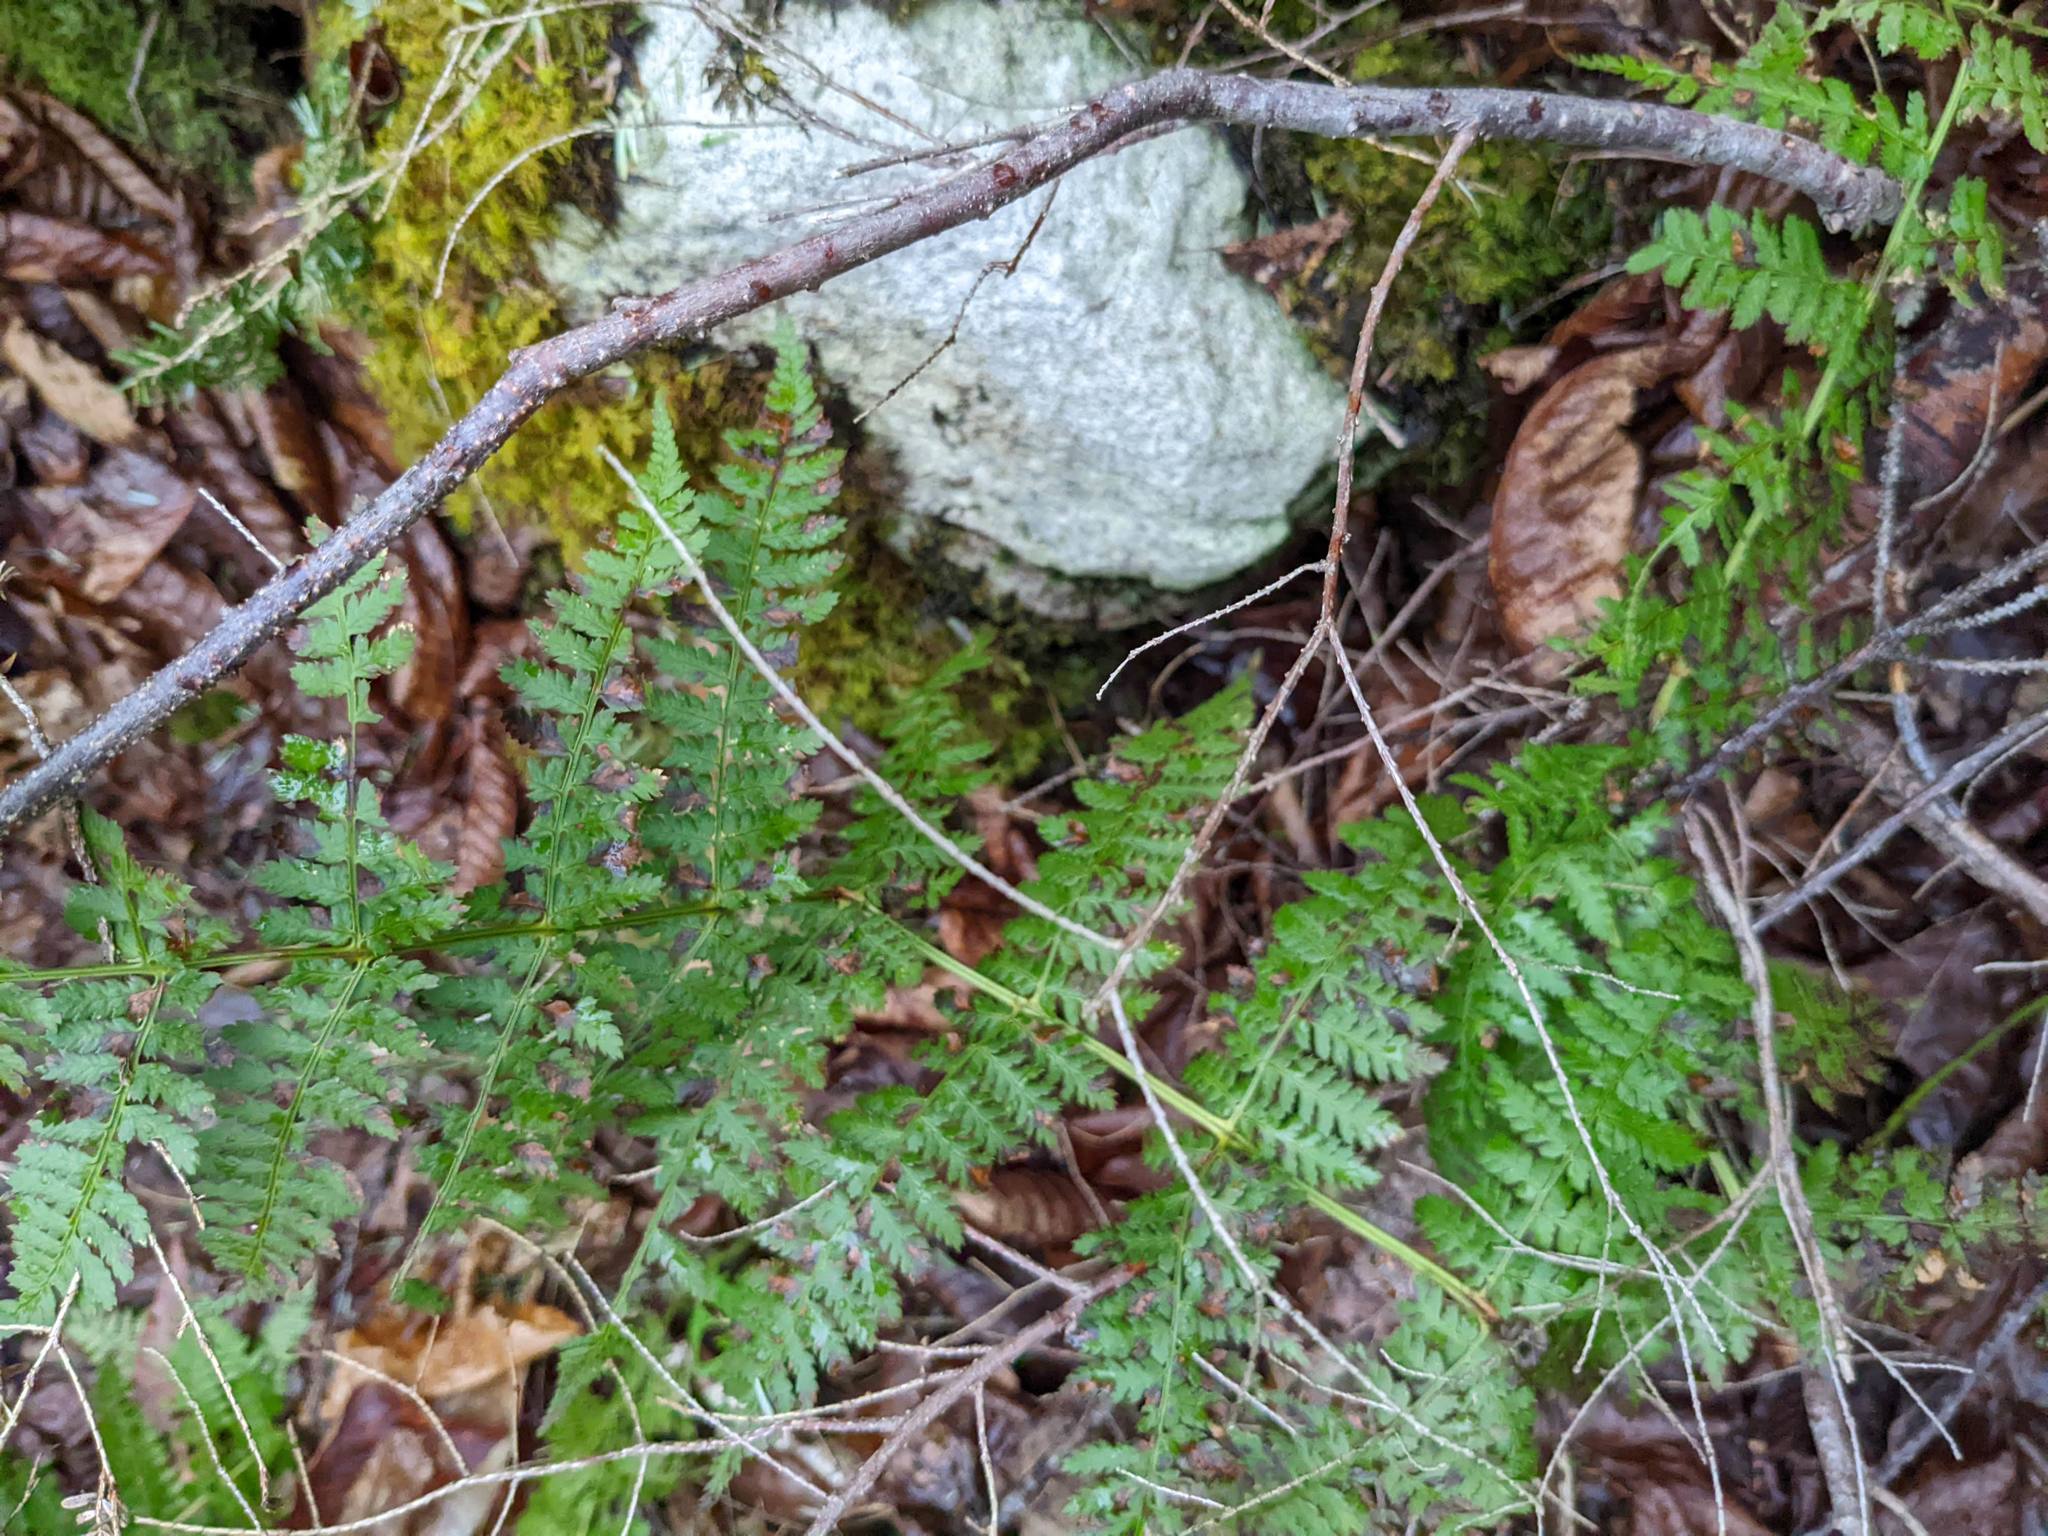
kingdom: Plantae
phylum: Tracheophyta
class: Polypodiopsida
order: Polypodiales
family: Dryopteridaceae
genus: Dryopteris
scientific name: Dryopteris intermedia
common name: Evergreen wood fern
